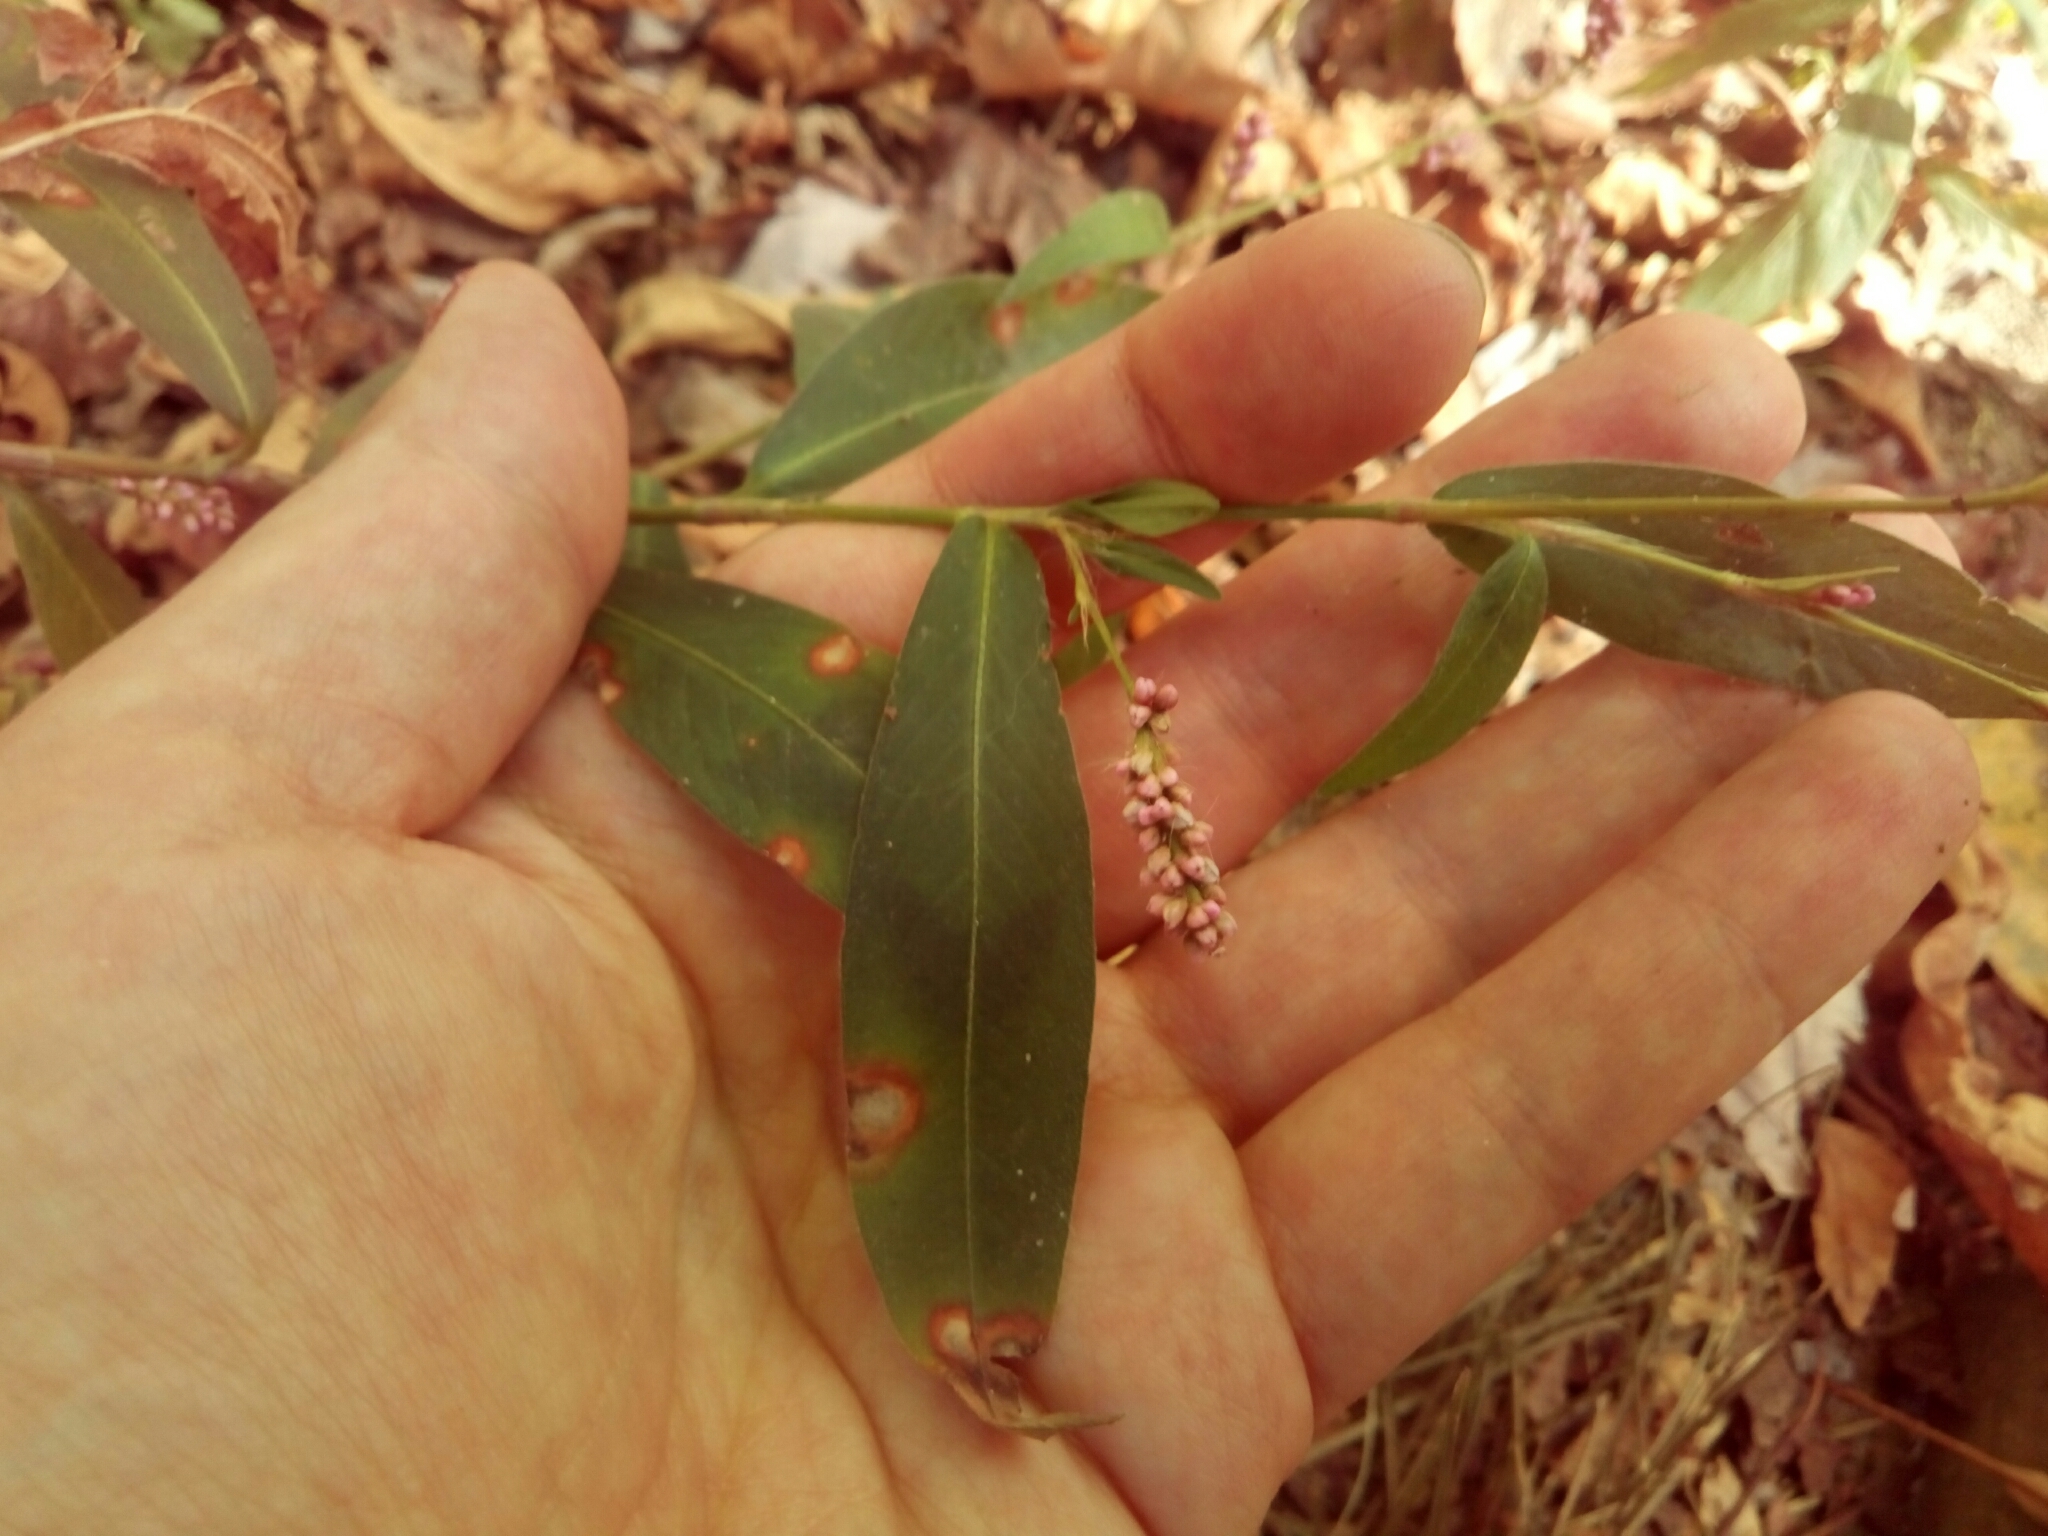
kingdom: Plantae
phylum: Tracheophyta
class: Magnoliopsida
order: Caryophyllales
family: Polygonaceae
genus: Persicaria
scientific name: Persicaria maculosa
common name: Redshank
